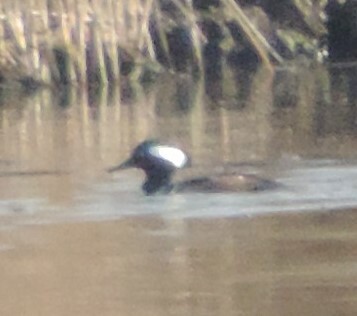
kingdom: Animalia
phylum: Chordata
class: Aves
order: Anseriformes
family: Anatidae
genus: Lophodytes
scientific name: Lophodytes cucullatus
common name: Hooded merganser
